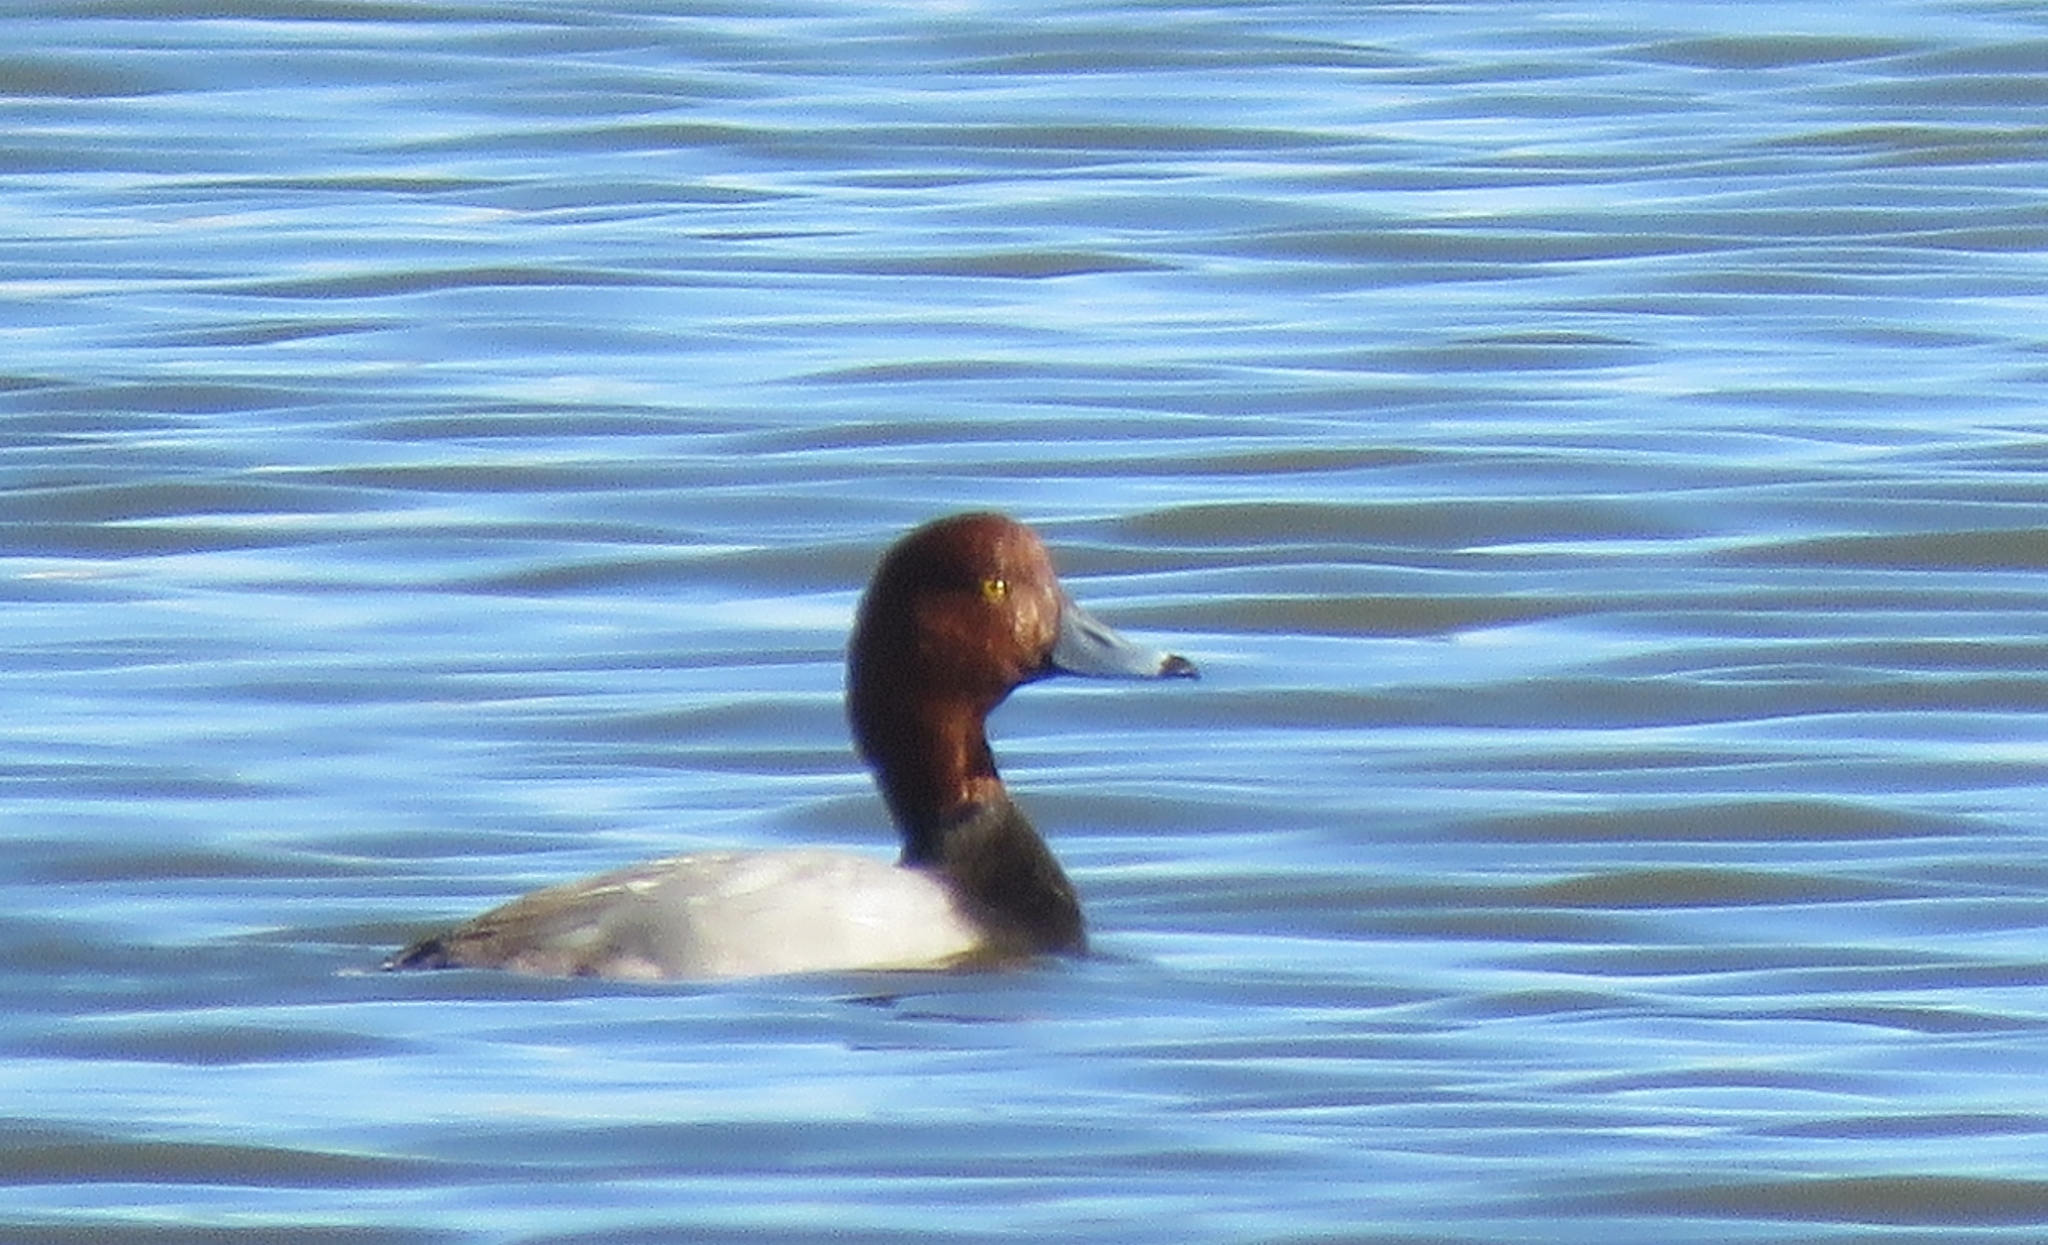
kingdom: Animalia
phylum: Chordata
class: Aves
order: Anseriformes
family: Anatidae
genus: Aythya
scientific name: Aythya americana
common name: Redhead
